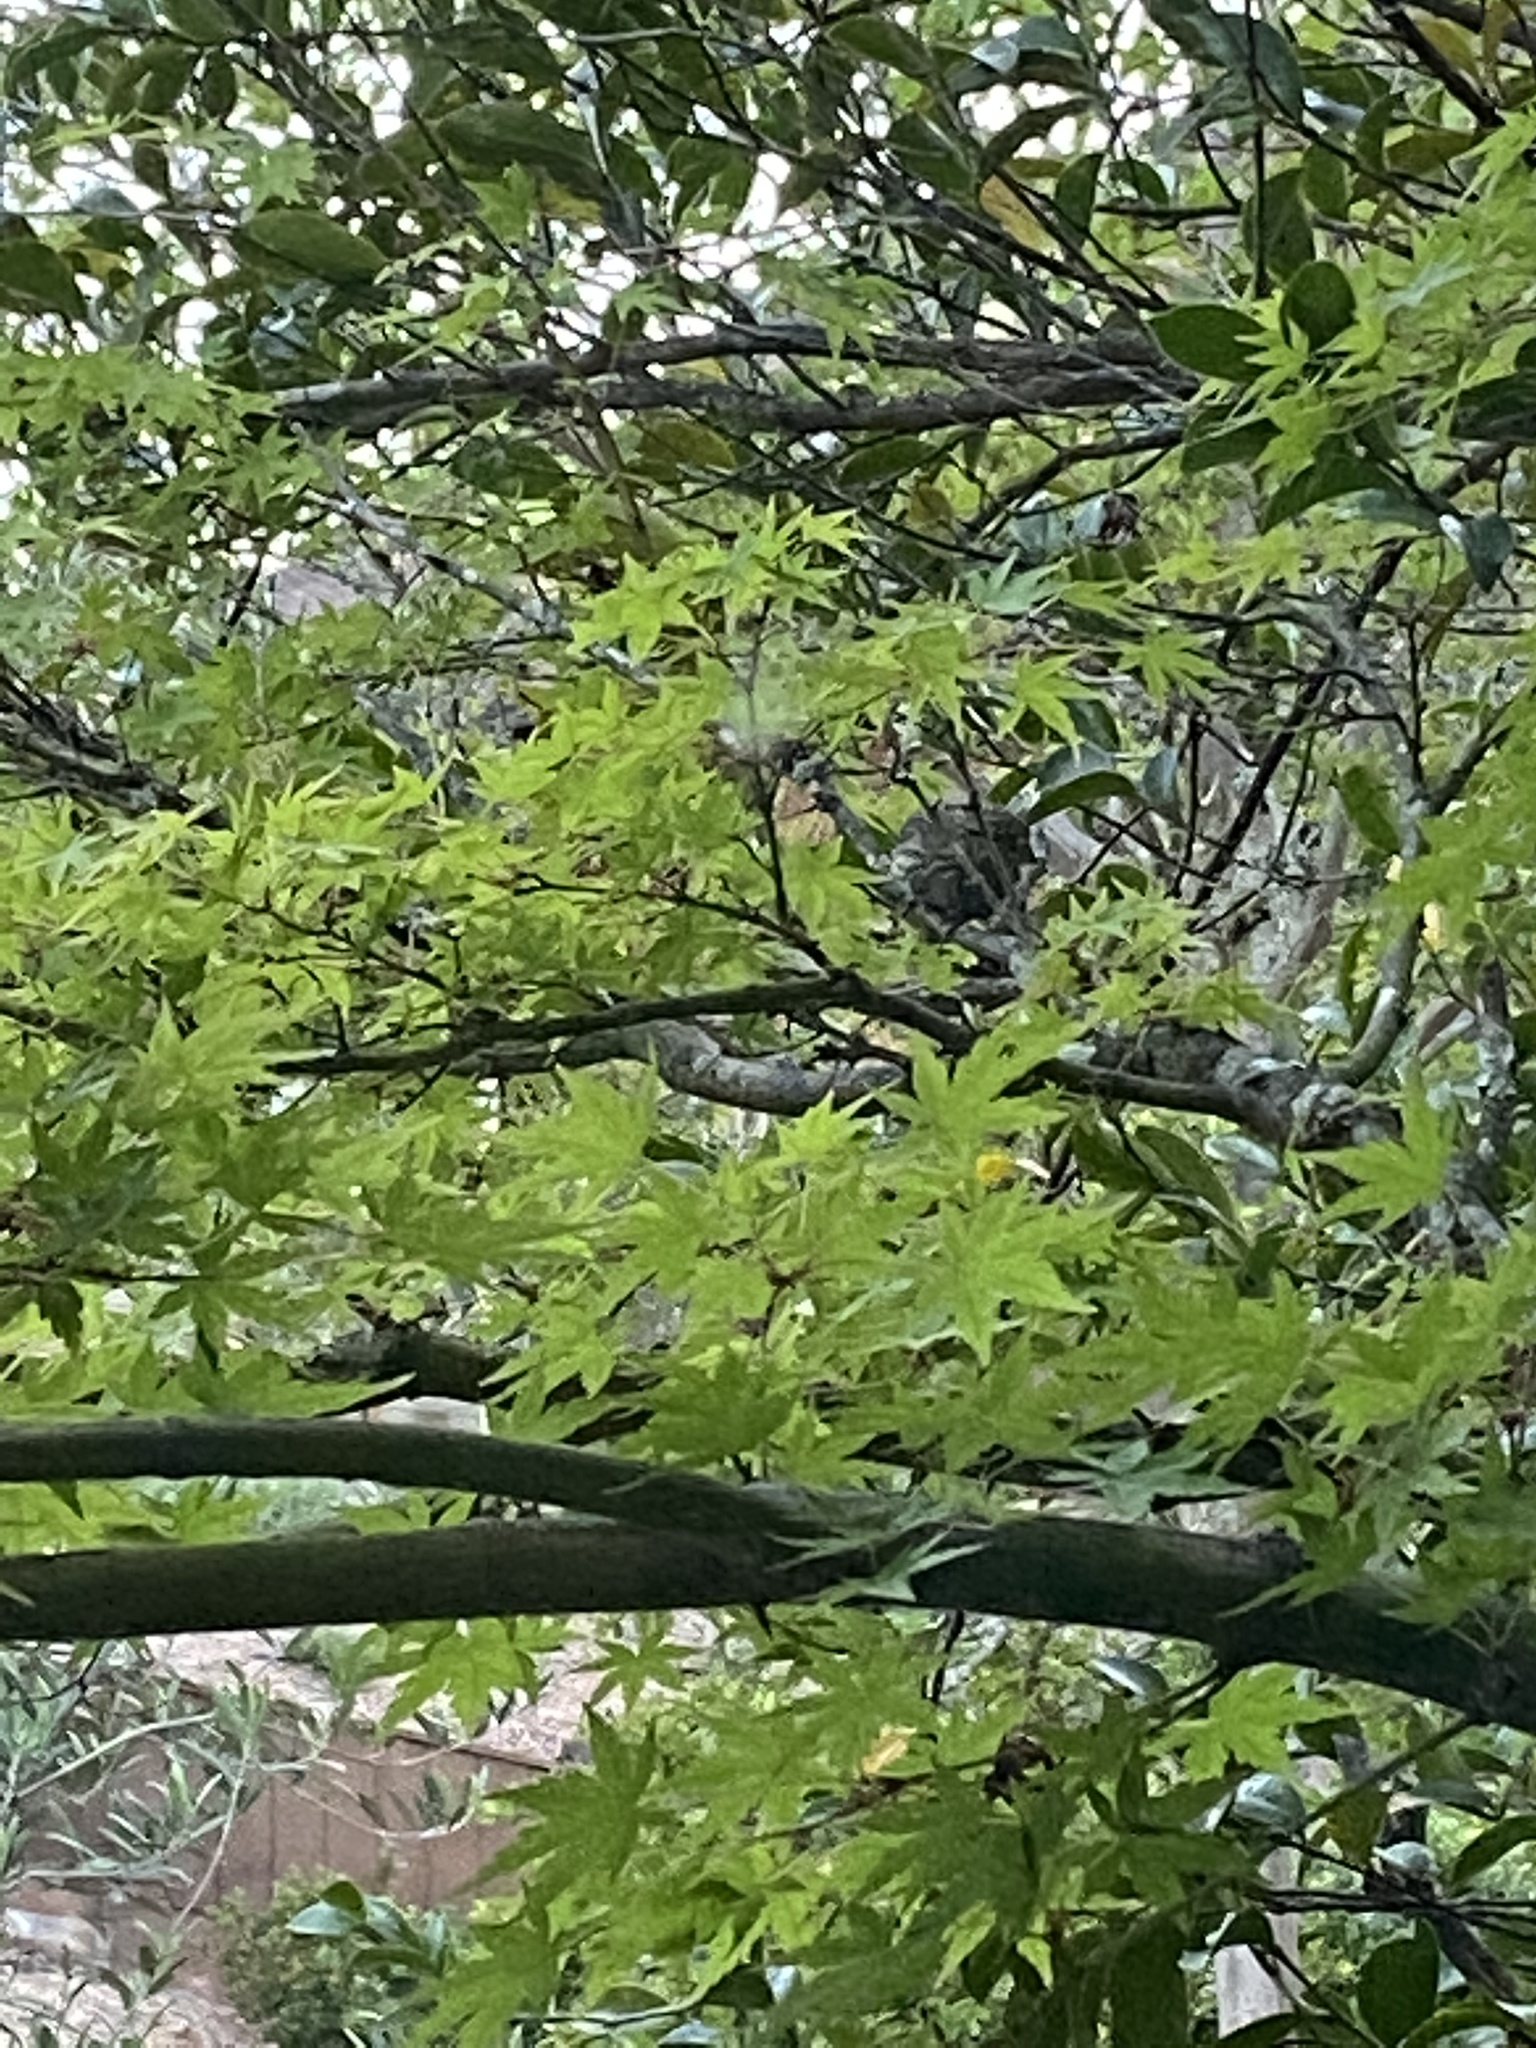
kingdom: Animalia
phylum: Chordata
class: Aves
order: Passeriformes
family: Fringillidae
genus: Haemorhous
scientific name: Haemorhous mexicanus
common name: House finch
